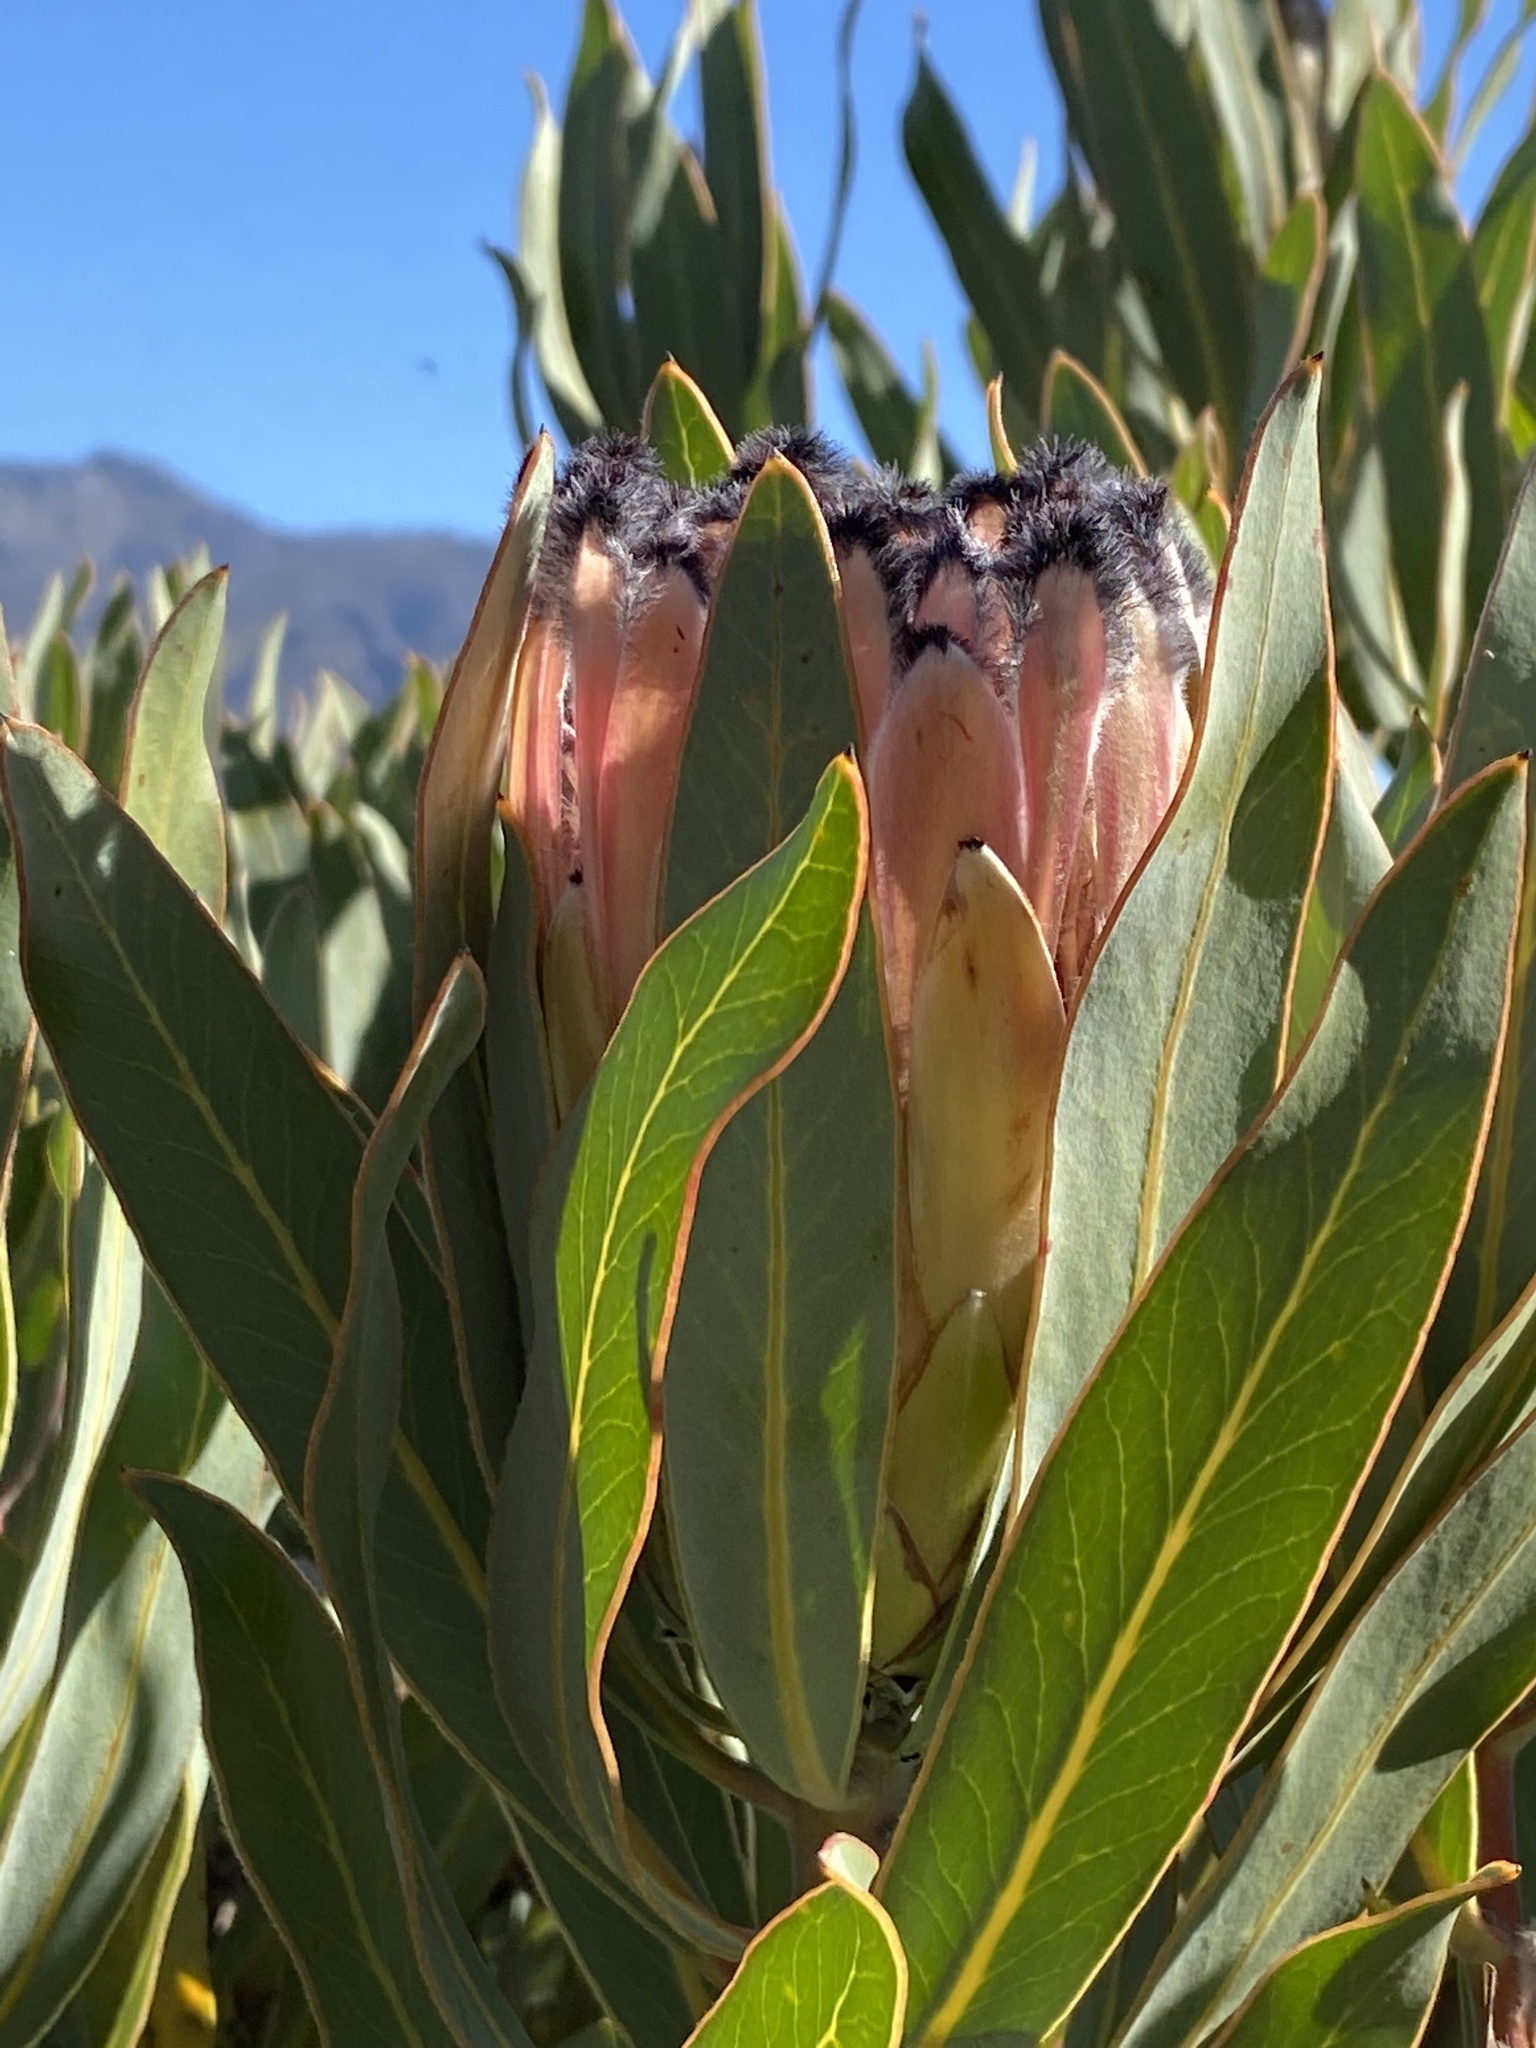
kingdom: Plantae
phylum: Tracheophyta
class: Magnoliopsida
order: Proteales
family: Proteaceae
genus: Protea
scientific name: Protea laurifolia
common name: Grey-leaf sugarbsh
